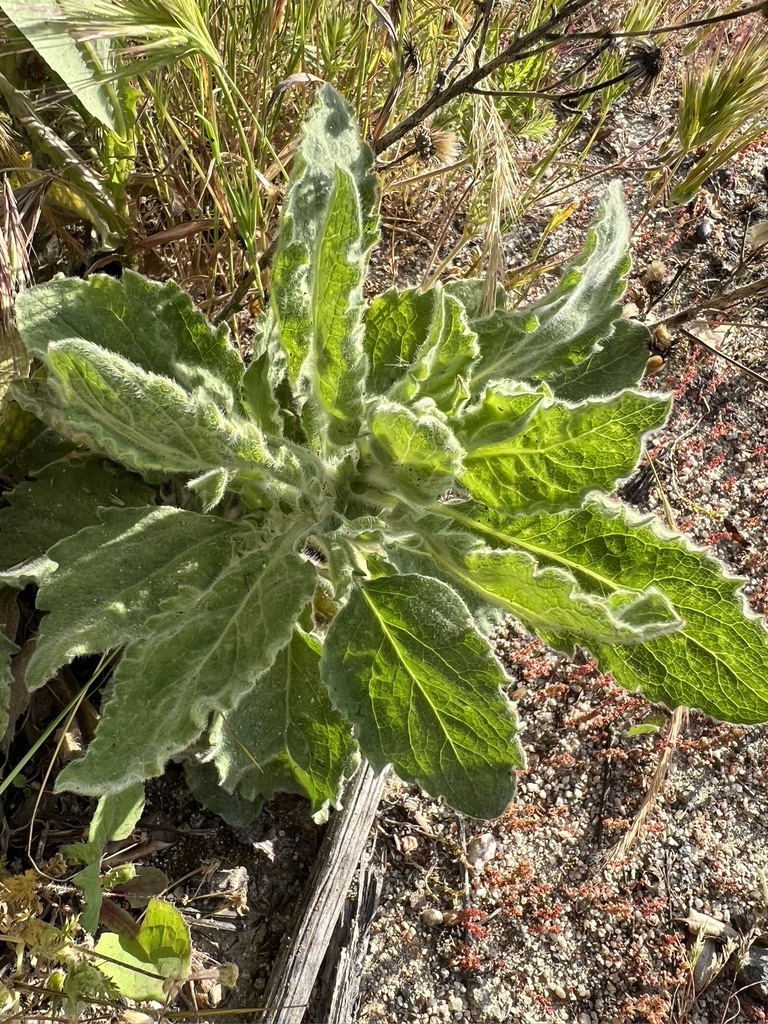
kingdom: Plantae
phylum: Tracheophyta
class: Magnoliopsida
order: Asterales
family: Asteraceae
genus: Heterotheca
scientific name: Heterotheca grandiflora
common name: Telegraphweed
